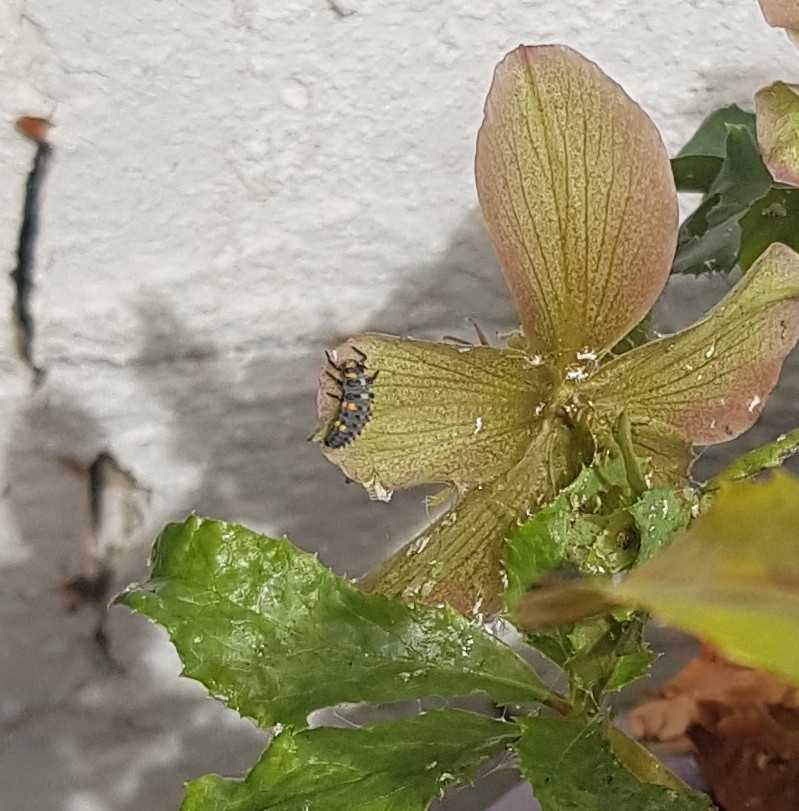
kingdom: Animalia
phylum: Arthropoda
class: Insecta
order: Coleoptera
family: Coccinellidae
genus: Coccinella
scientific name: Coccinella septempunctata
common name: Sevenspotted lady beetle
